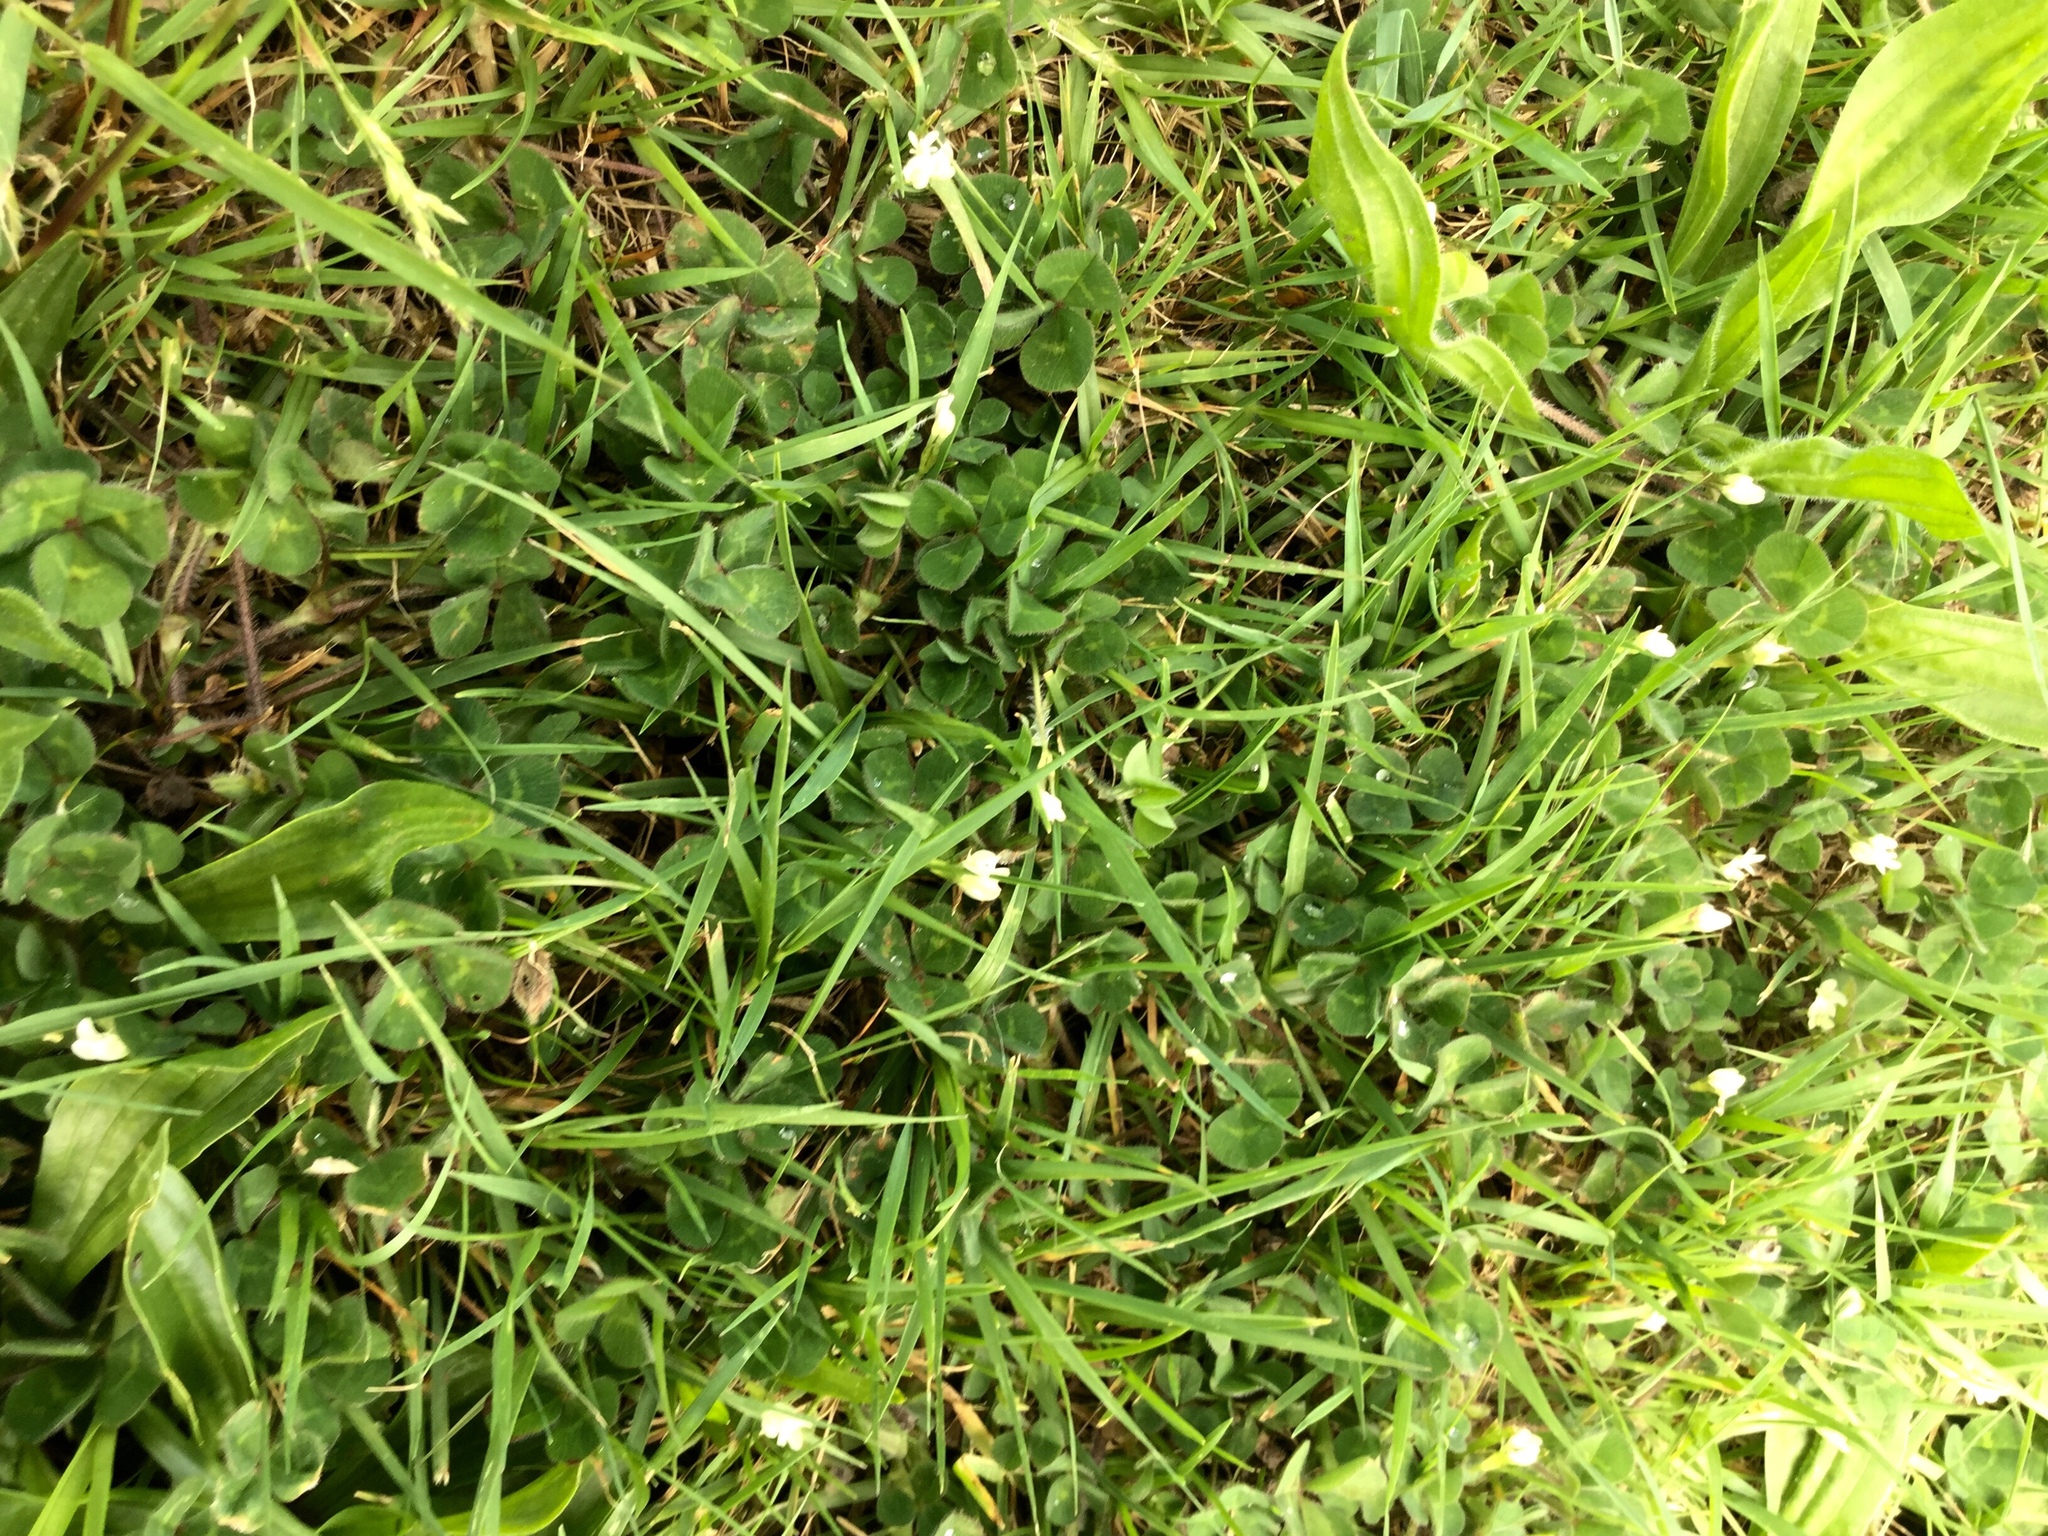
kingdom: Plantae
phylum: Tracheophyta
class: Magnoliopsida
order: Fabales
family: Fabaceae
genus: Trifolium
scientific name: Trifolium subterraneum
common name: Subterranean clover
